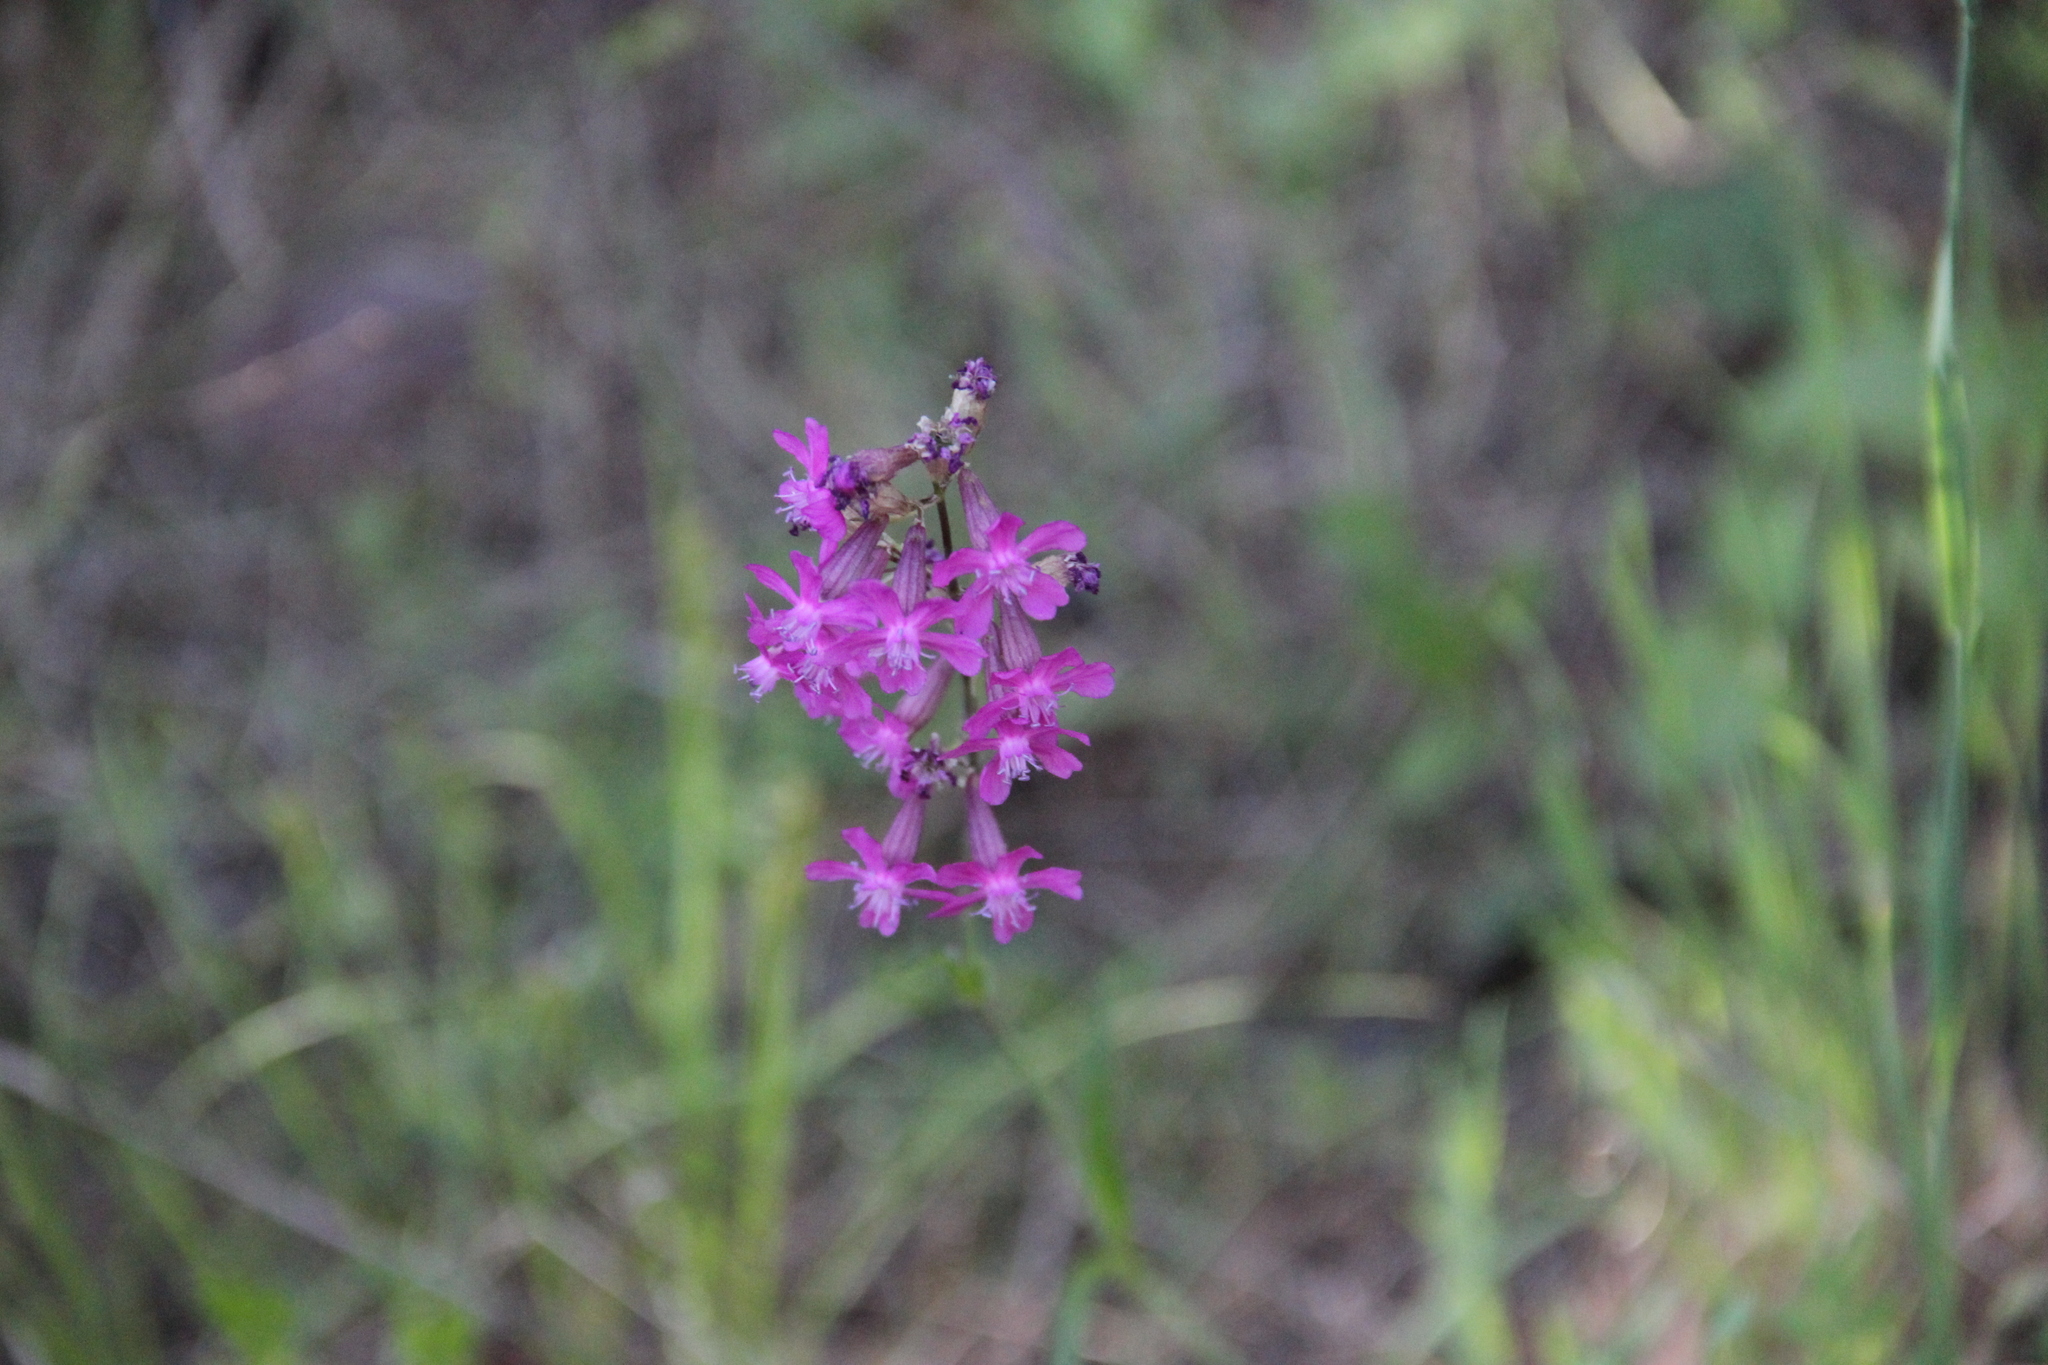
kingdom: Plantae
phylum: Tracheophyta
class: Magnoliopsida
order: Caryophyllales
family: Caryophyllaceae
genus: Viscaria
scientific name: Viscaria vulgaris
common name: Clammy campion
